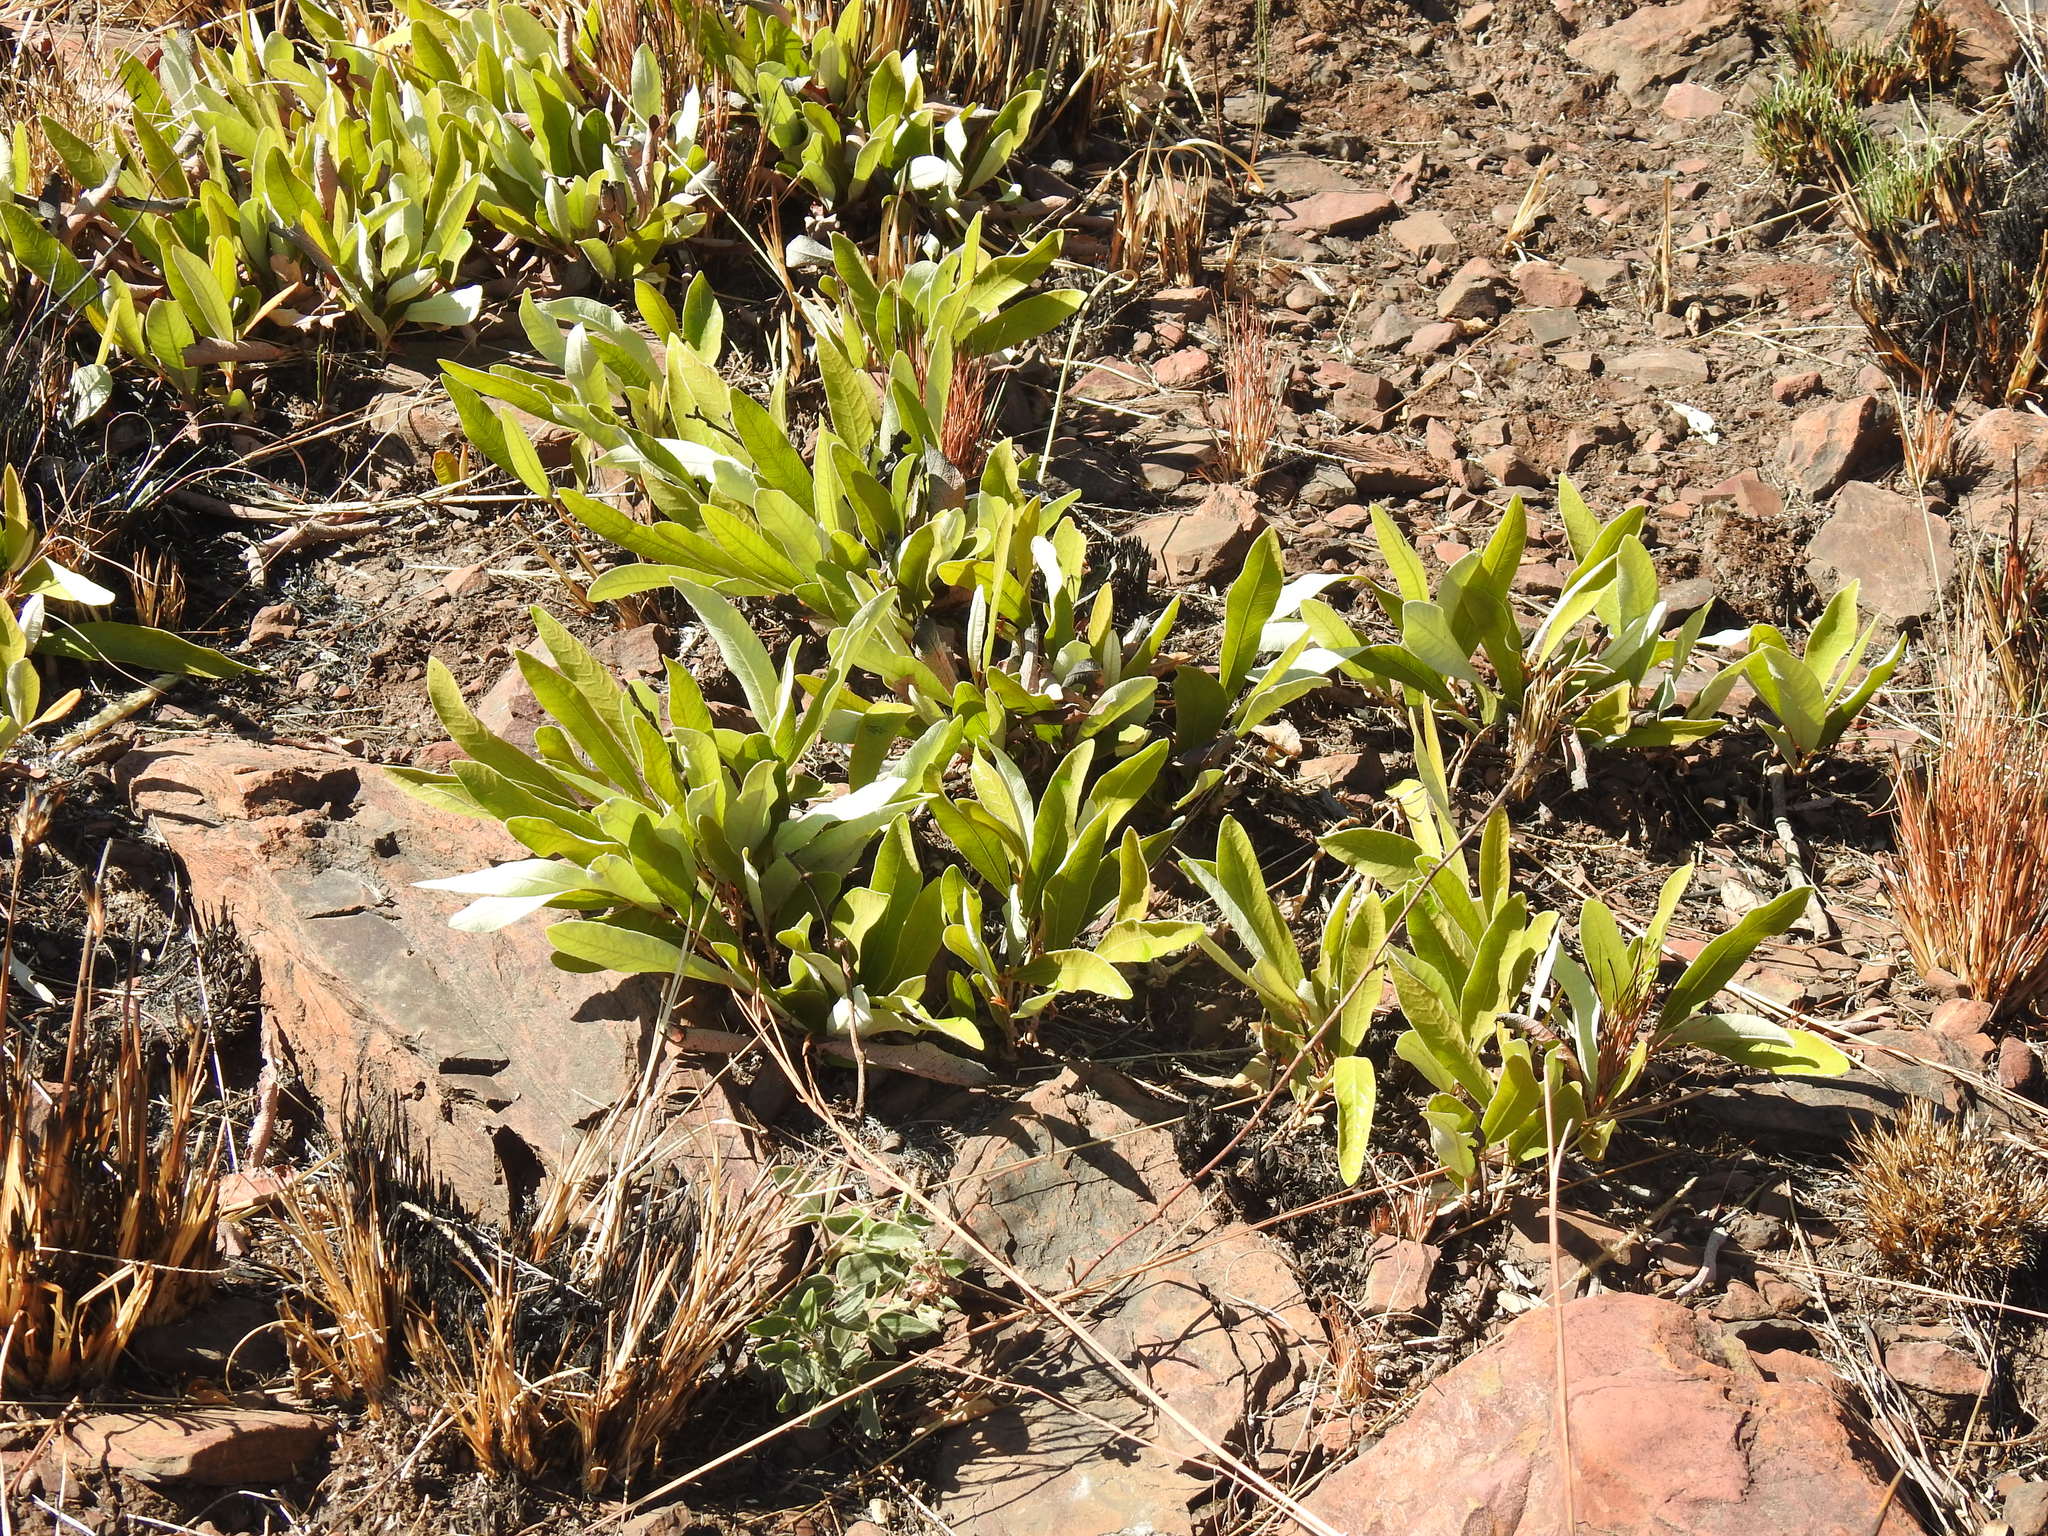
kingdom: Plantae
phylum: Tracheophyta
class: Magnoliopsida
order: Malpighiales
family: Chrysobalanaceae
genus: Parinari
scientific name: Parinari capensis
